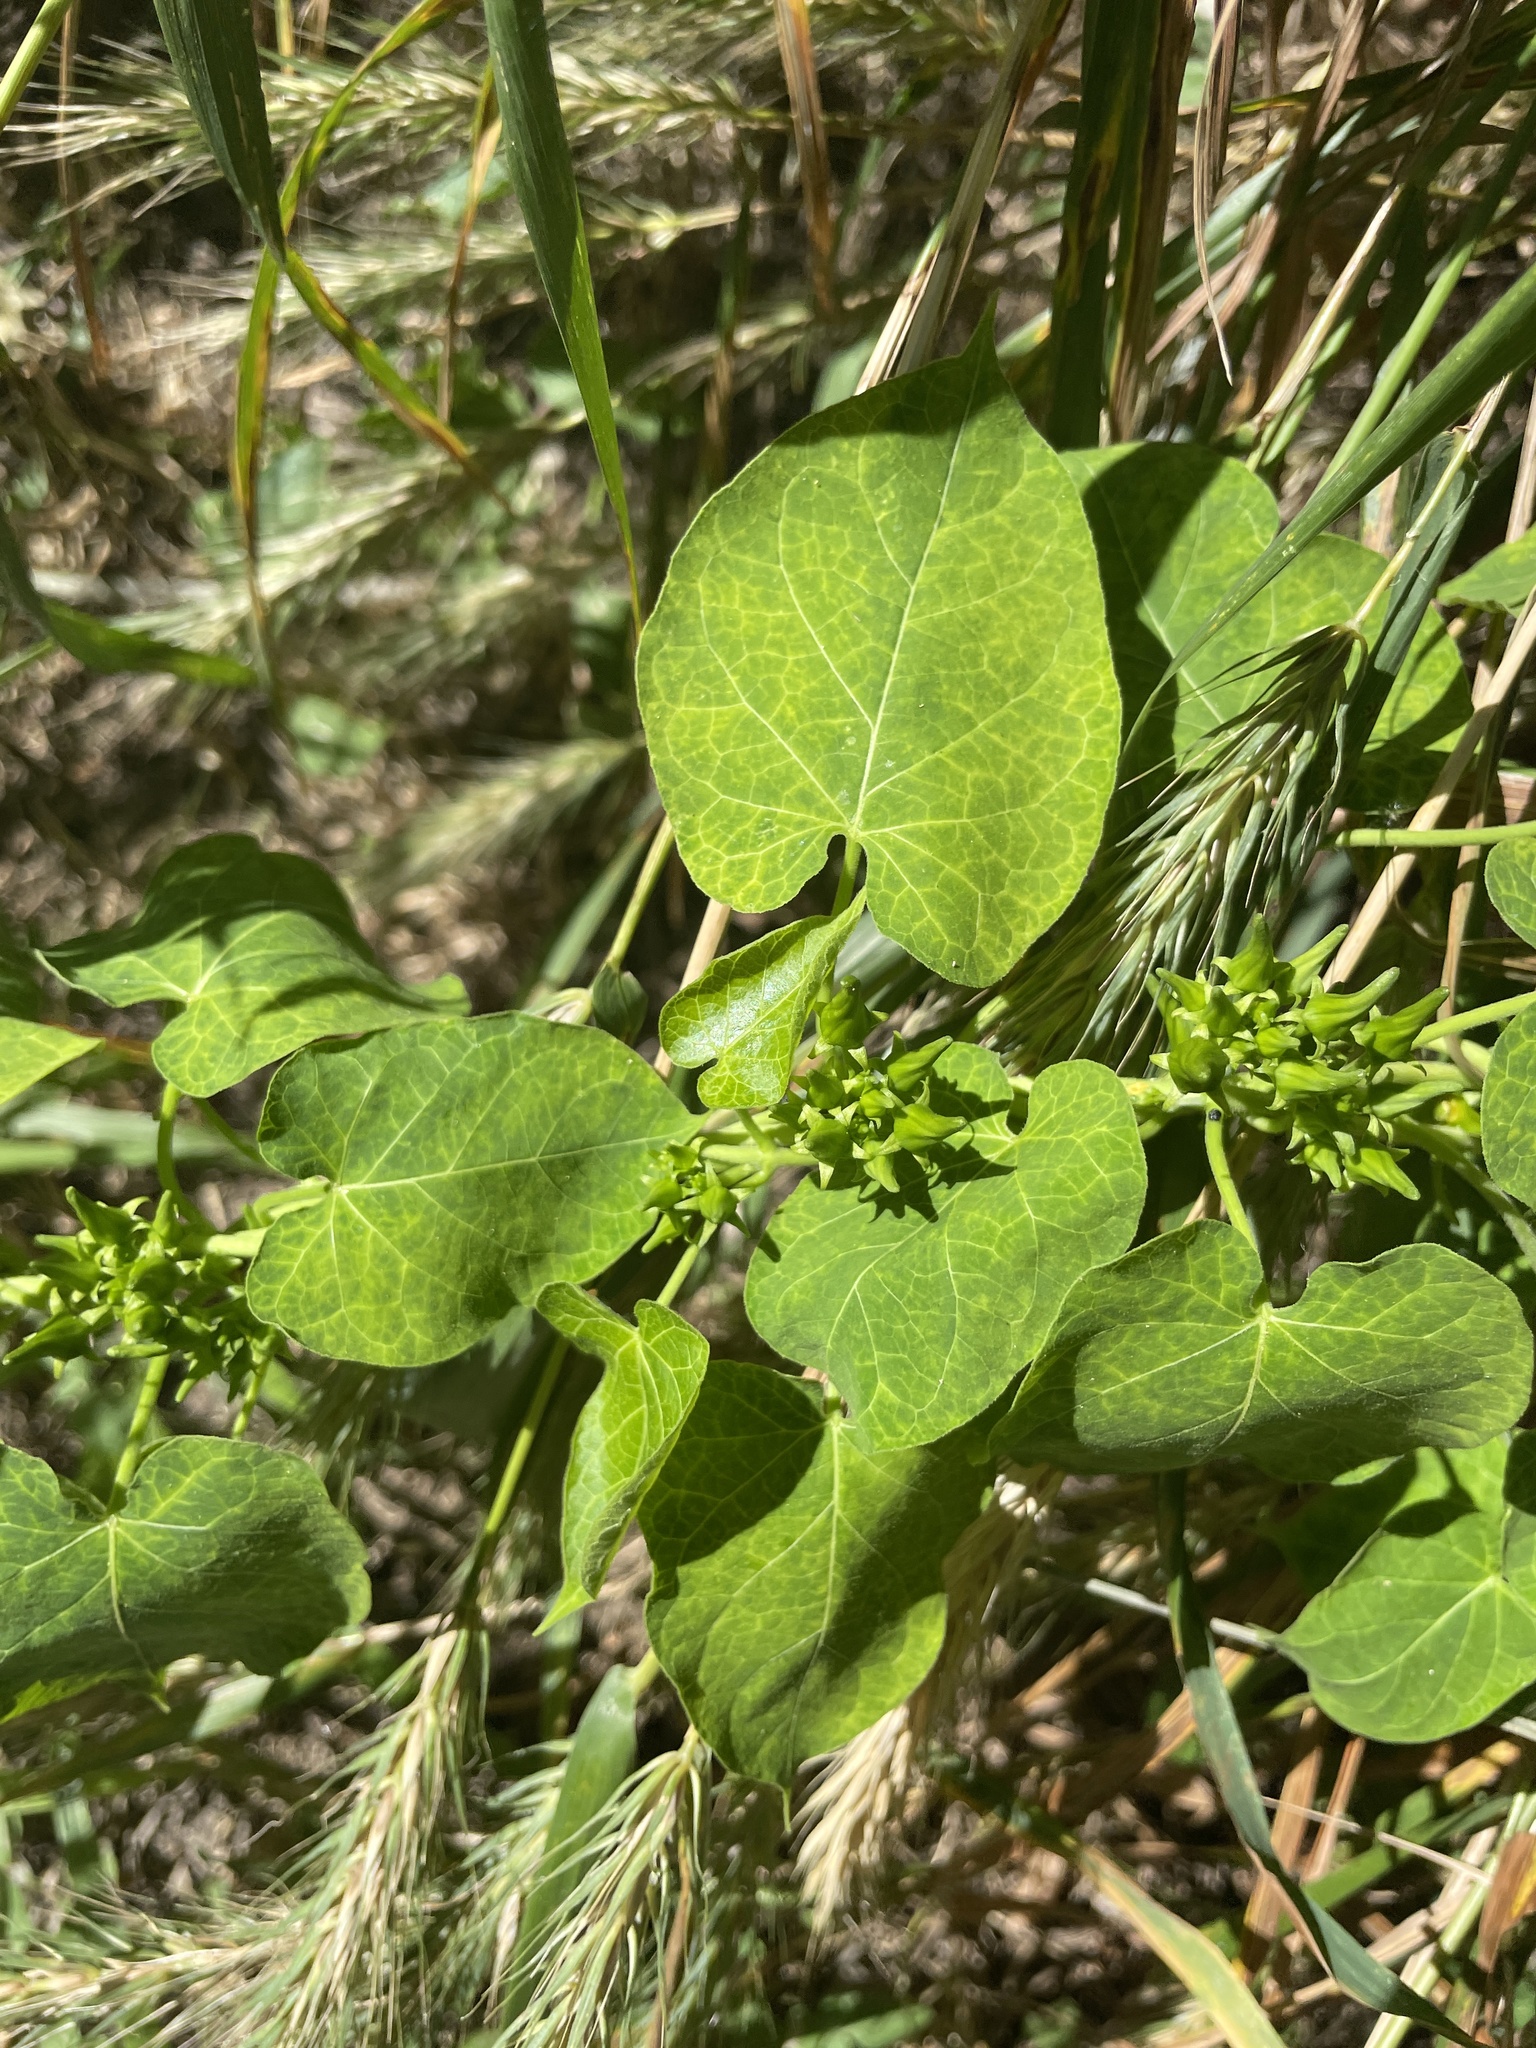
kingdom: Plantae
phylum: Tracheophyta
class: Magnoliopsida
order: Gentianales
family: Apocynaceae
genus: Gonolobus
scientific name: Gonolobus suberosus
